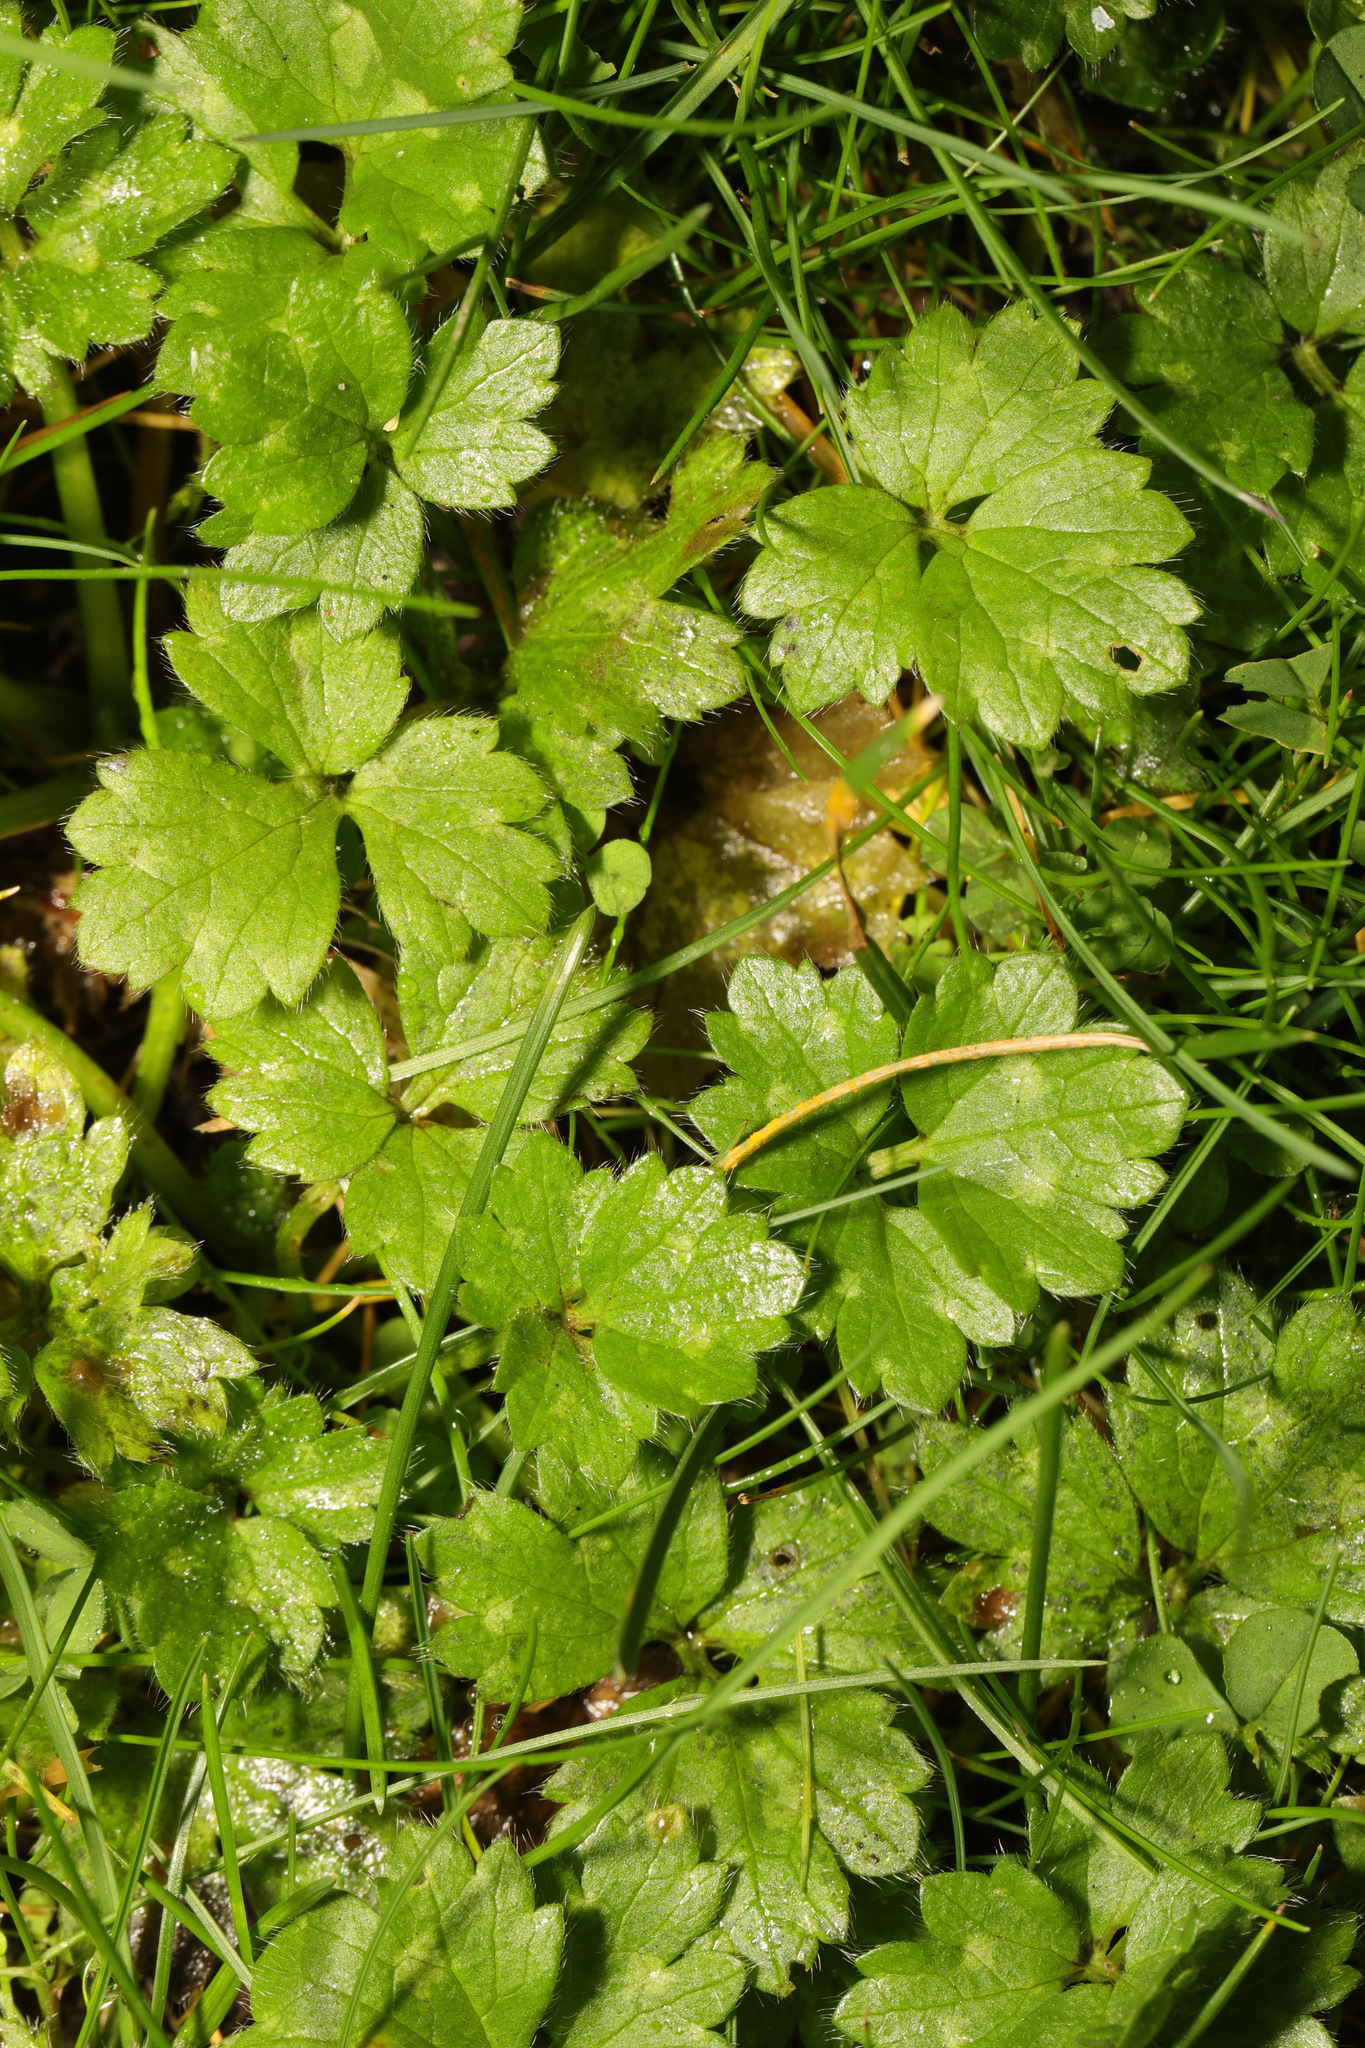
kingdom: Plantae
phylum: Tracheophyta
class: Magnoliopsida
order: Ranunculales
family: Ranunculaceae
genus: Ranunculus
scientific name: Ranunculus repens
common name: Creeping buttercup
